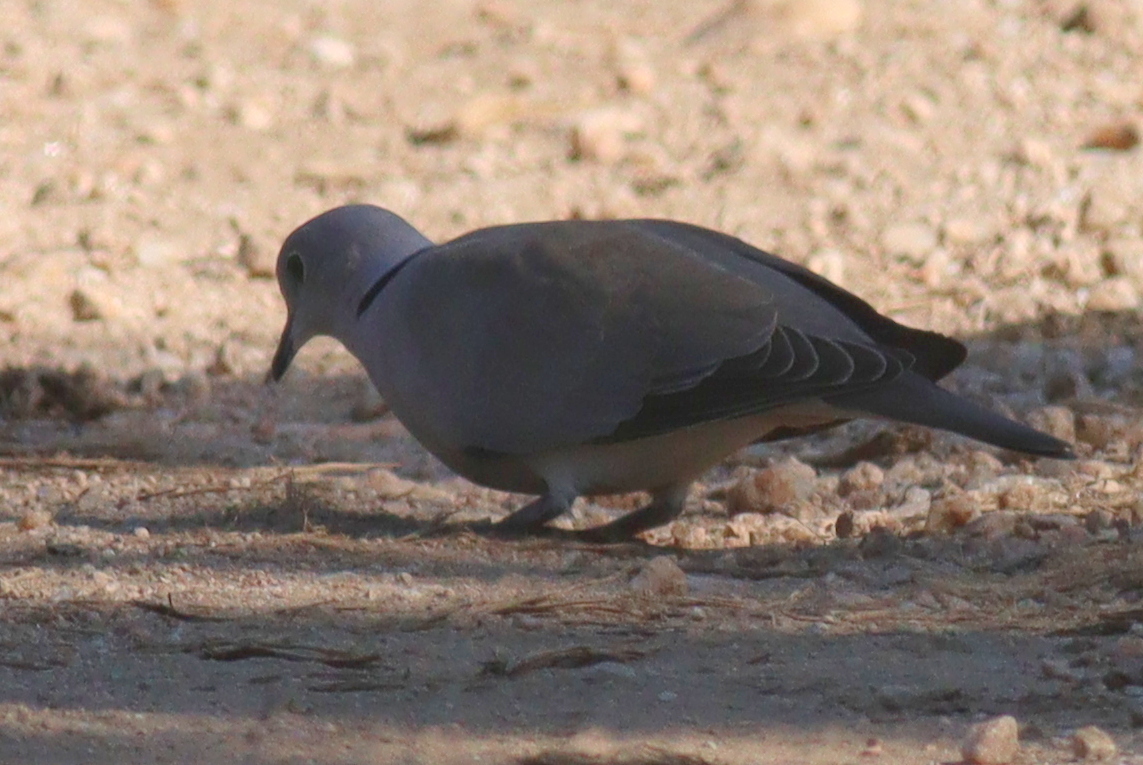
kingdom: Animalia
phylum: Chordata
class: Aves
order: Columbiformes
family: Columbidae
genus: Streptopelia
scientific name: Streptopelia capicola
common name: Ring-necked dove
